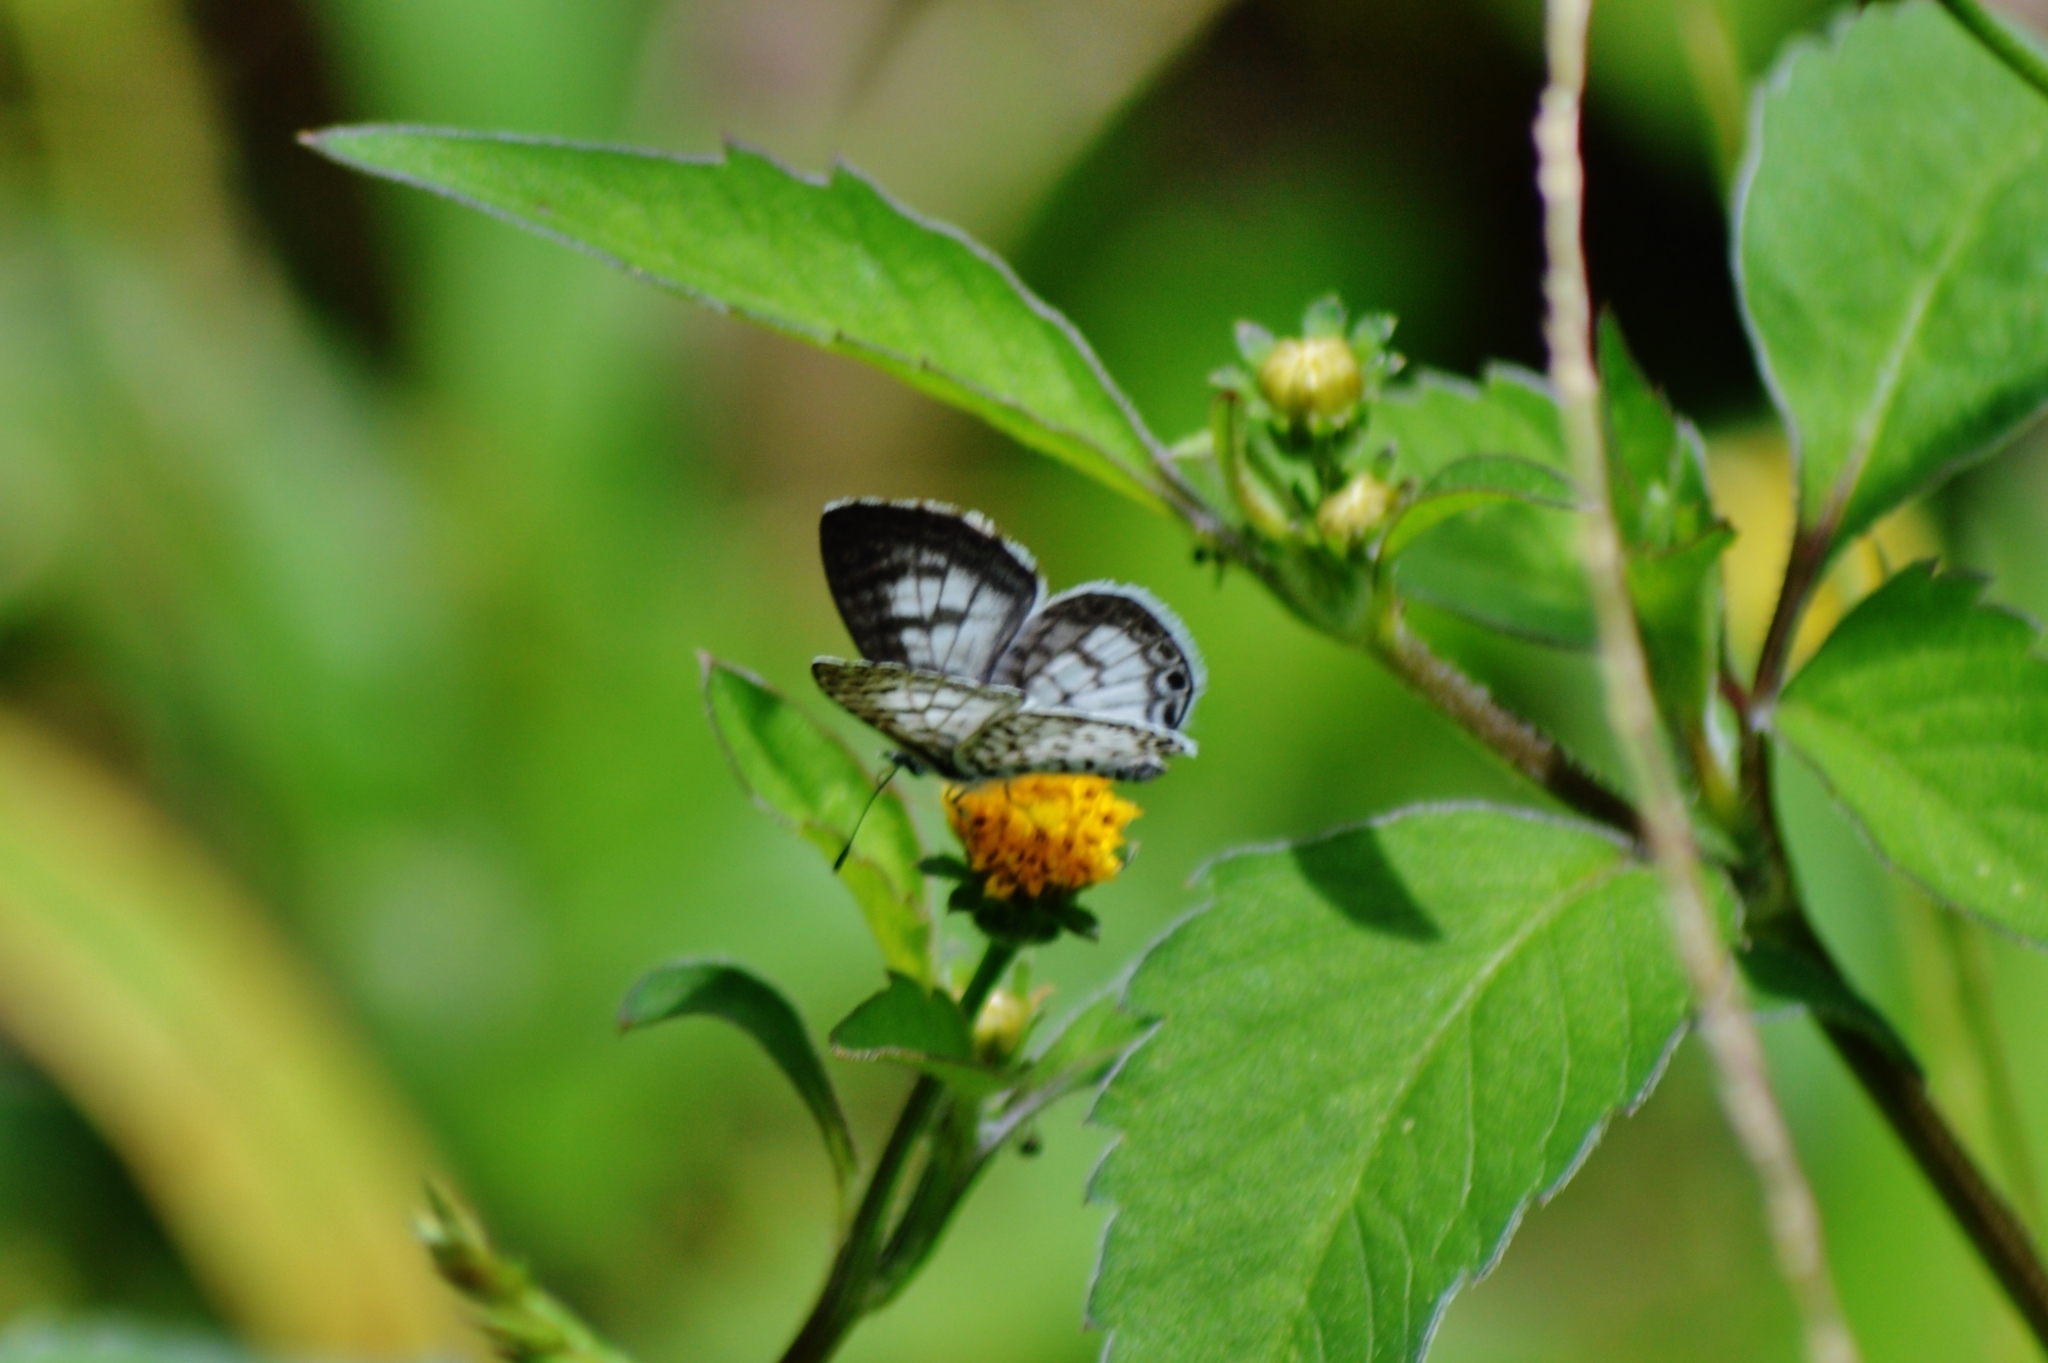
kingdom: Animalia
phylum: Arthropoda
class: Insecta
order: Lepidoptera
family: Lycaenidae
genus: Leptotes
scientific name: Leptotes cassius
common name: Cassius blue
